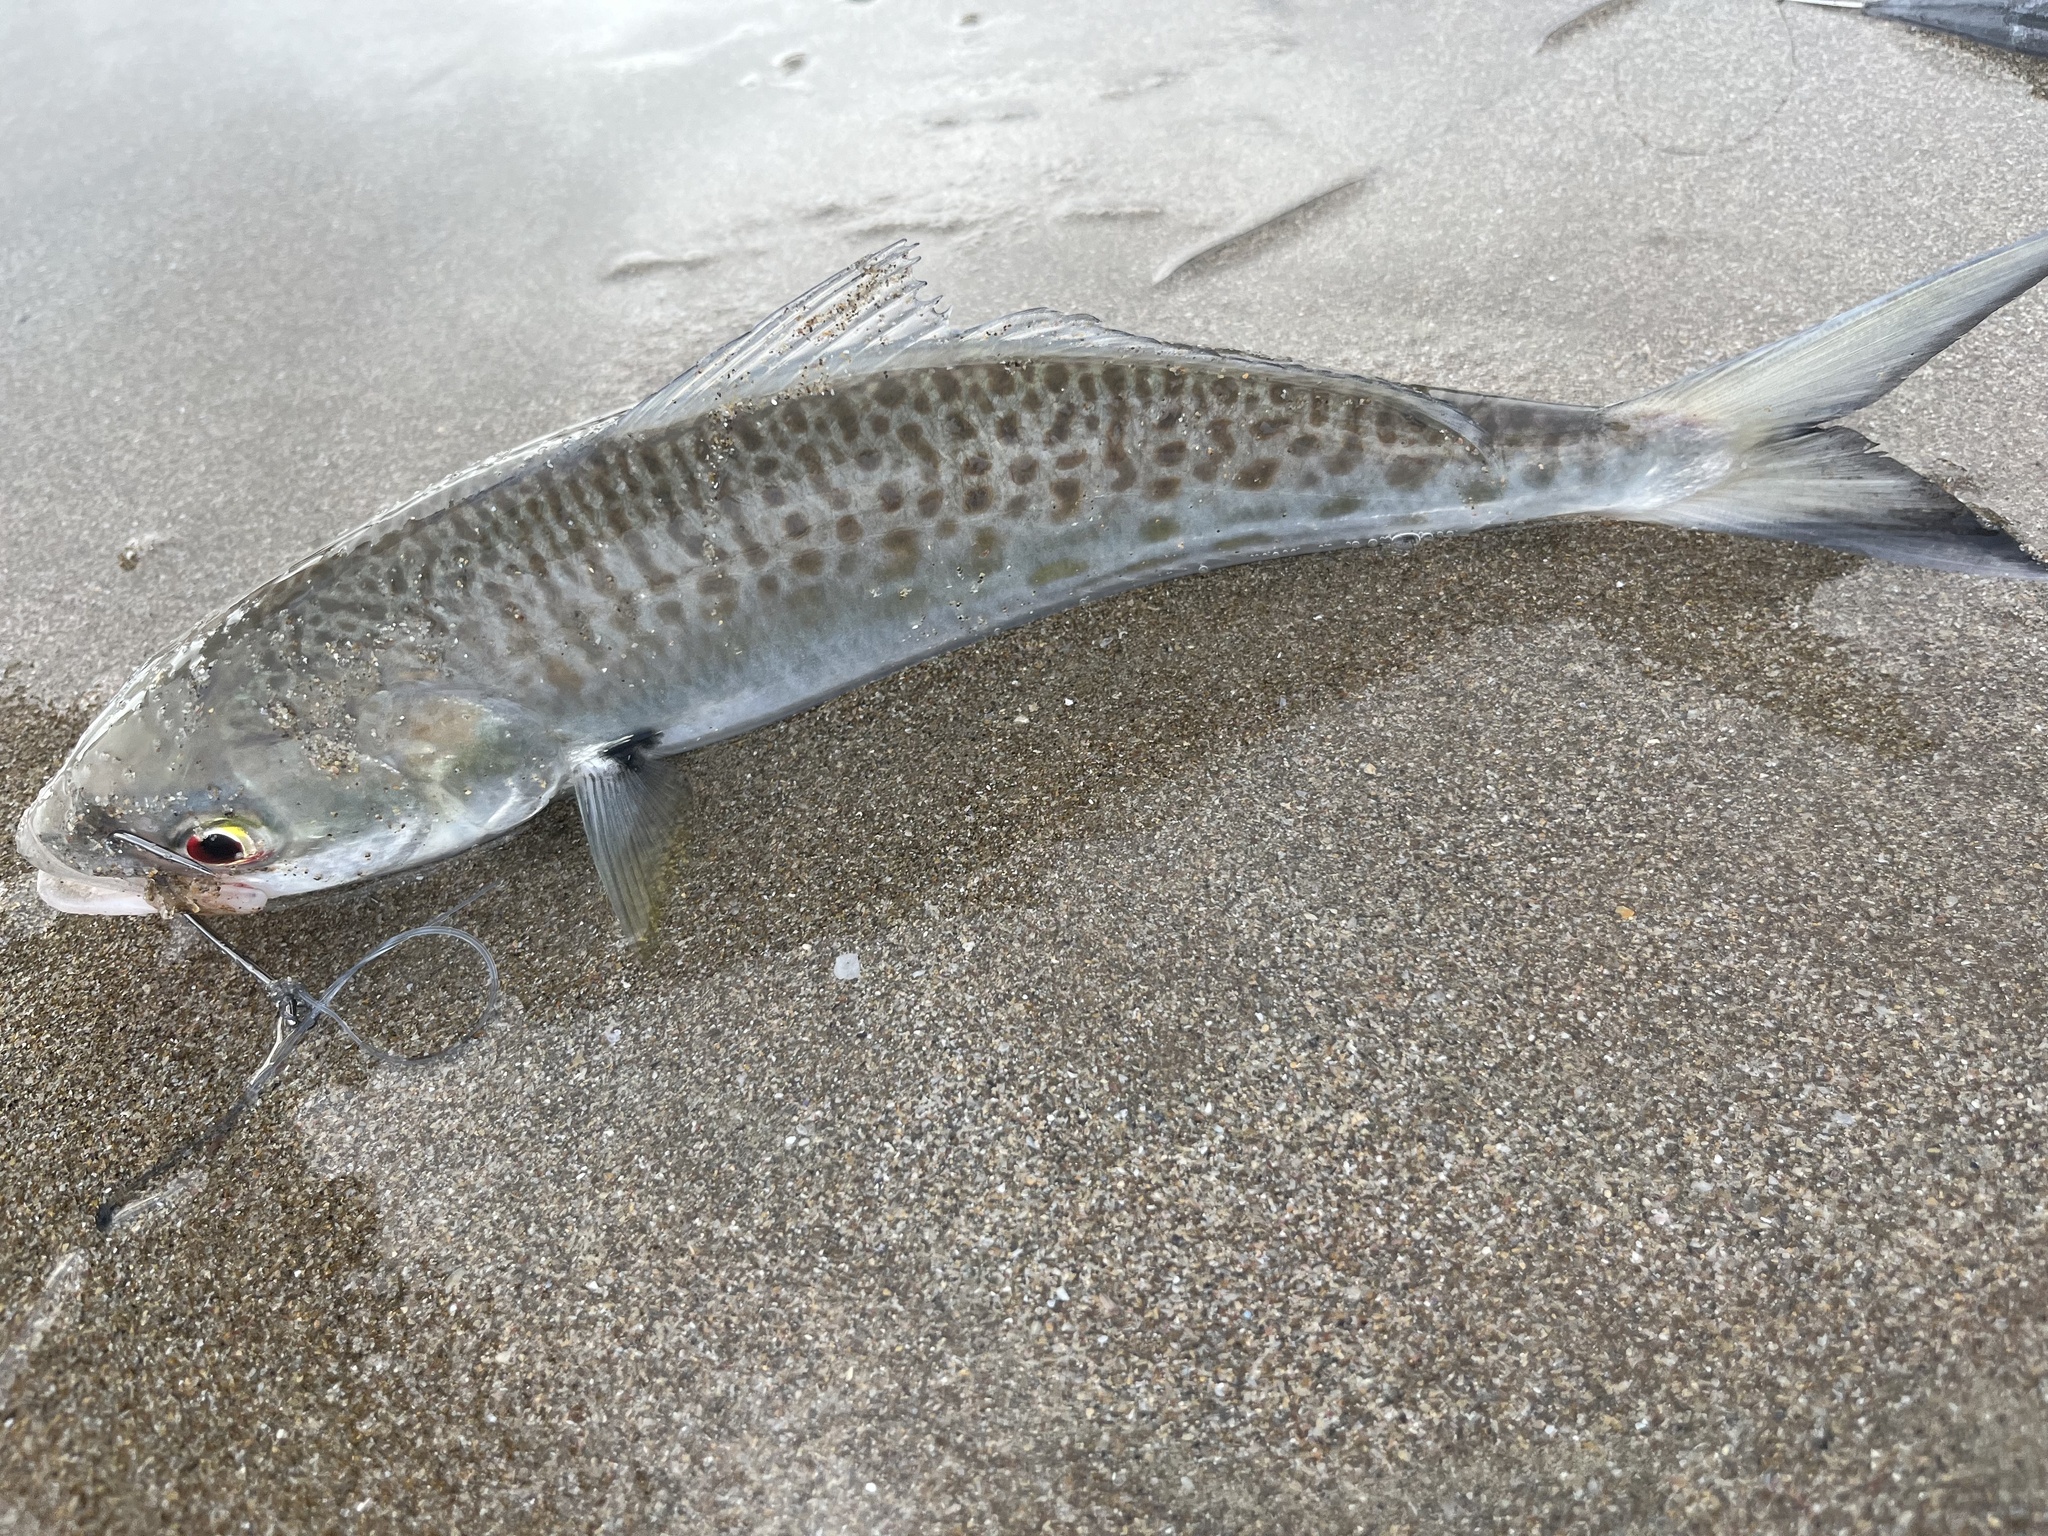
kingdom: Animalia
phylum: Chordata
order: Perciformes
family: Arripidae
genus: Arripis
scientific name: Arripis trutta
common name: Kahawai
